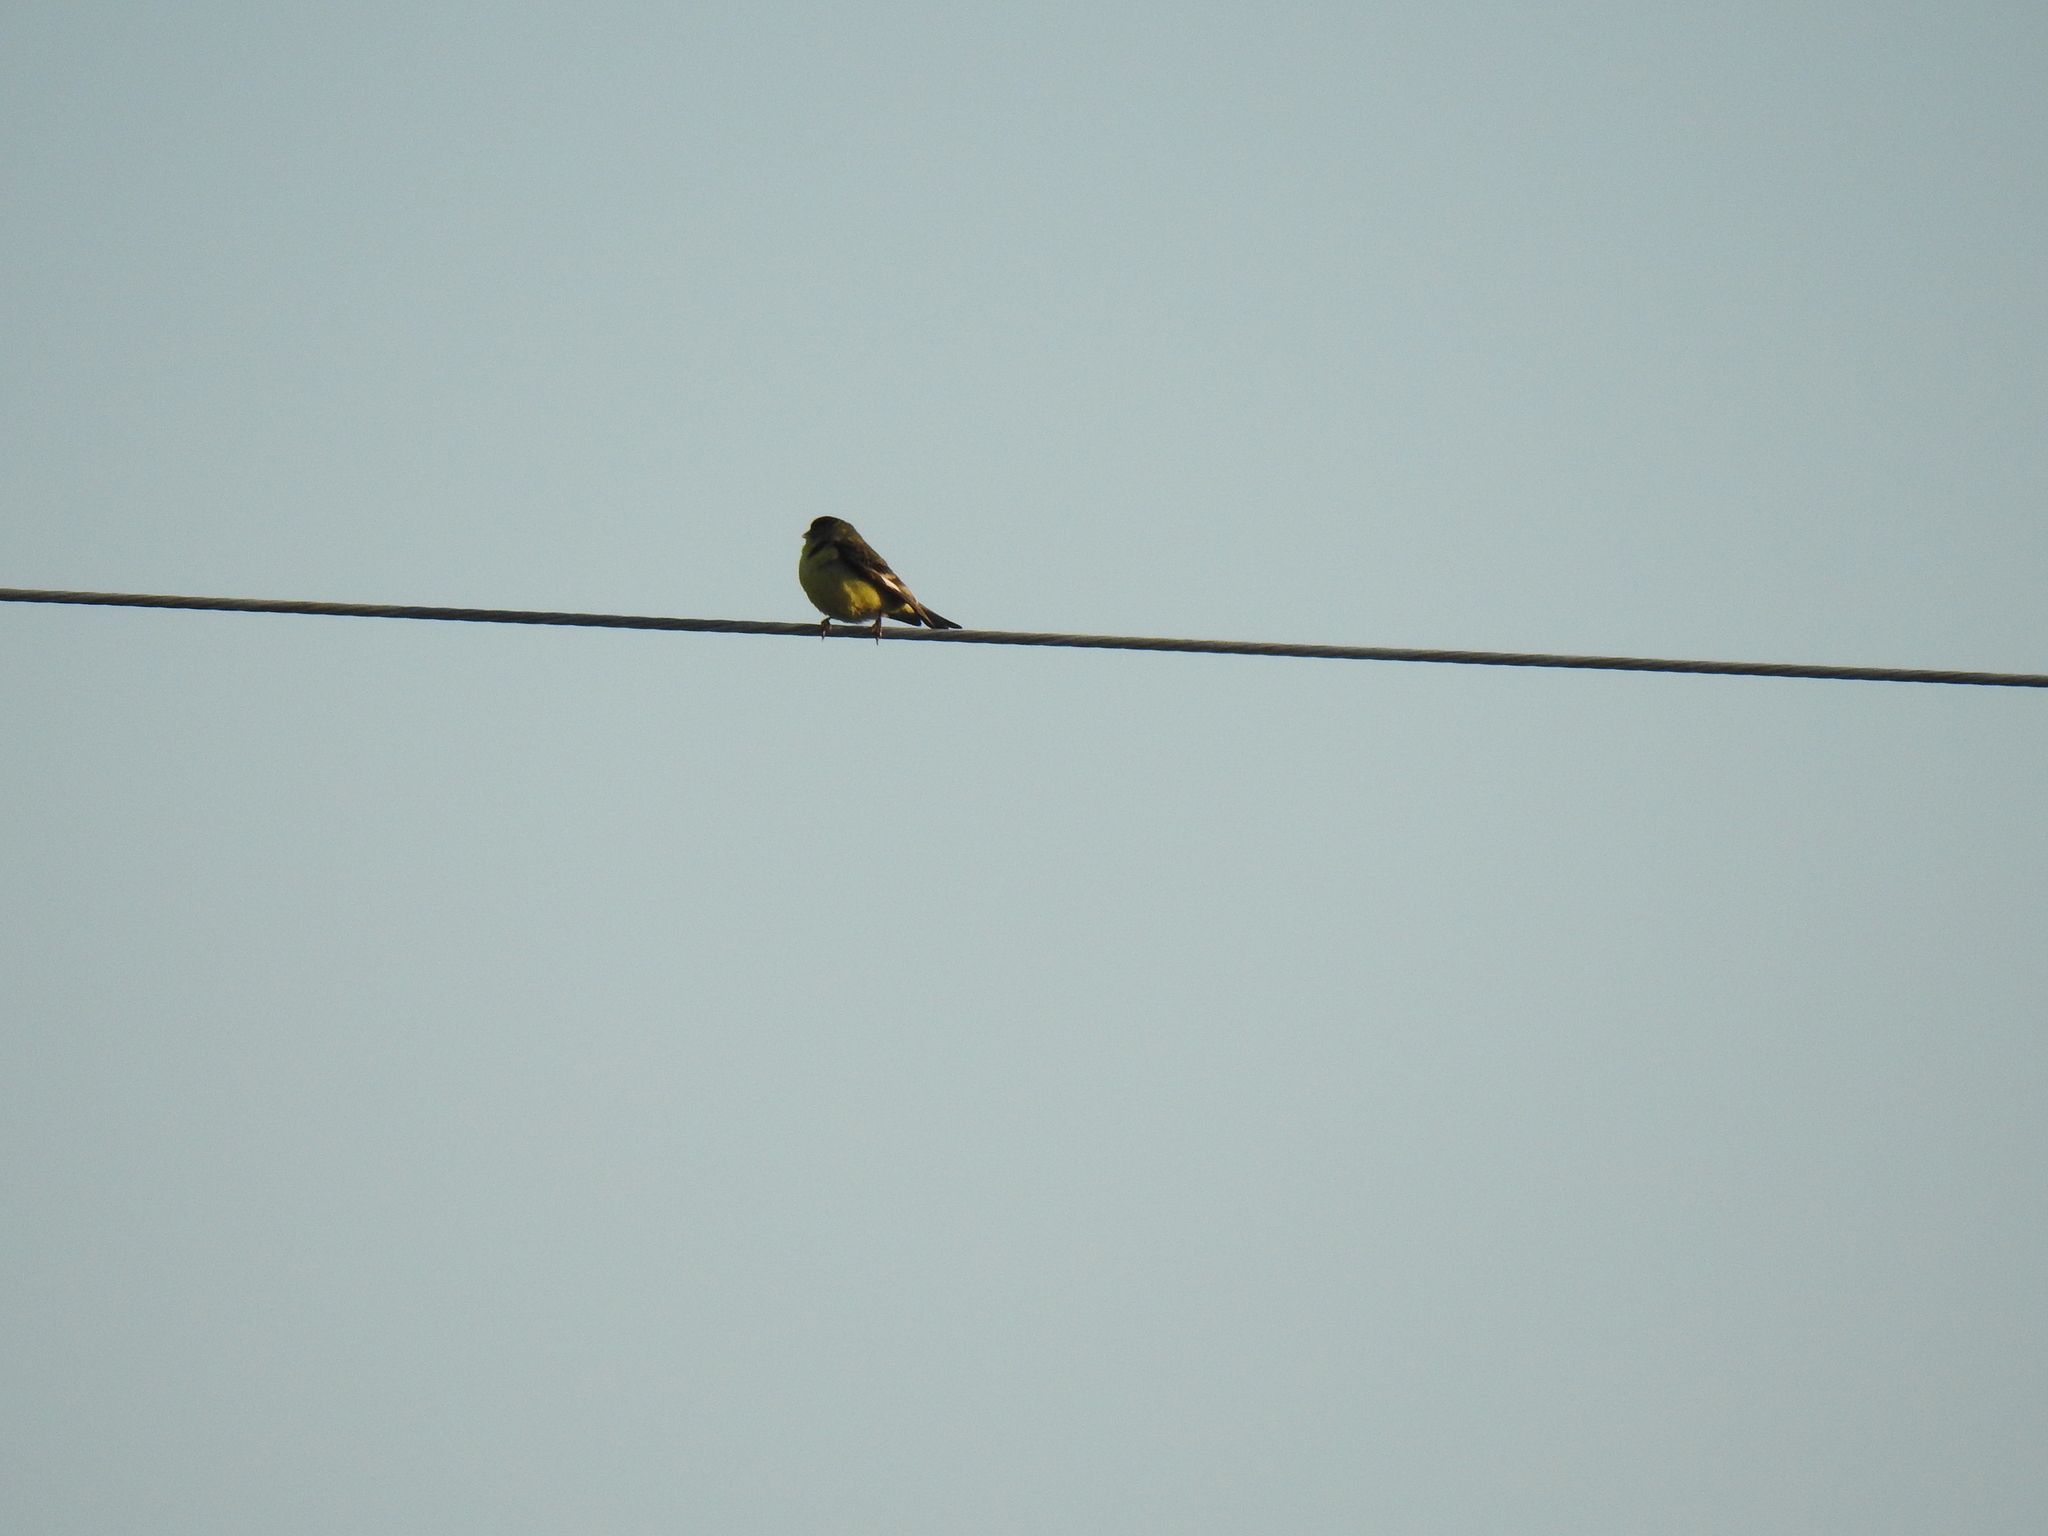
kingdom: Animalia
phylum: Chordata
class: Aves
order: Passeriformes
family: Fringillidae
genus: Spinus
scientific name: Spinus psaltria
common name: Lesser goldfinch
